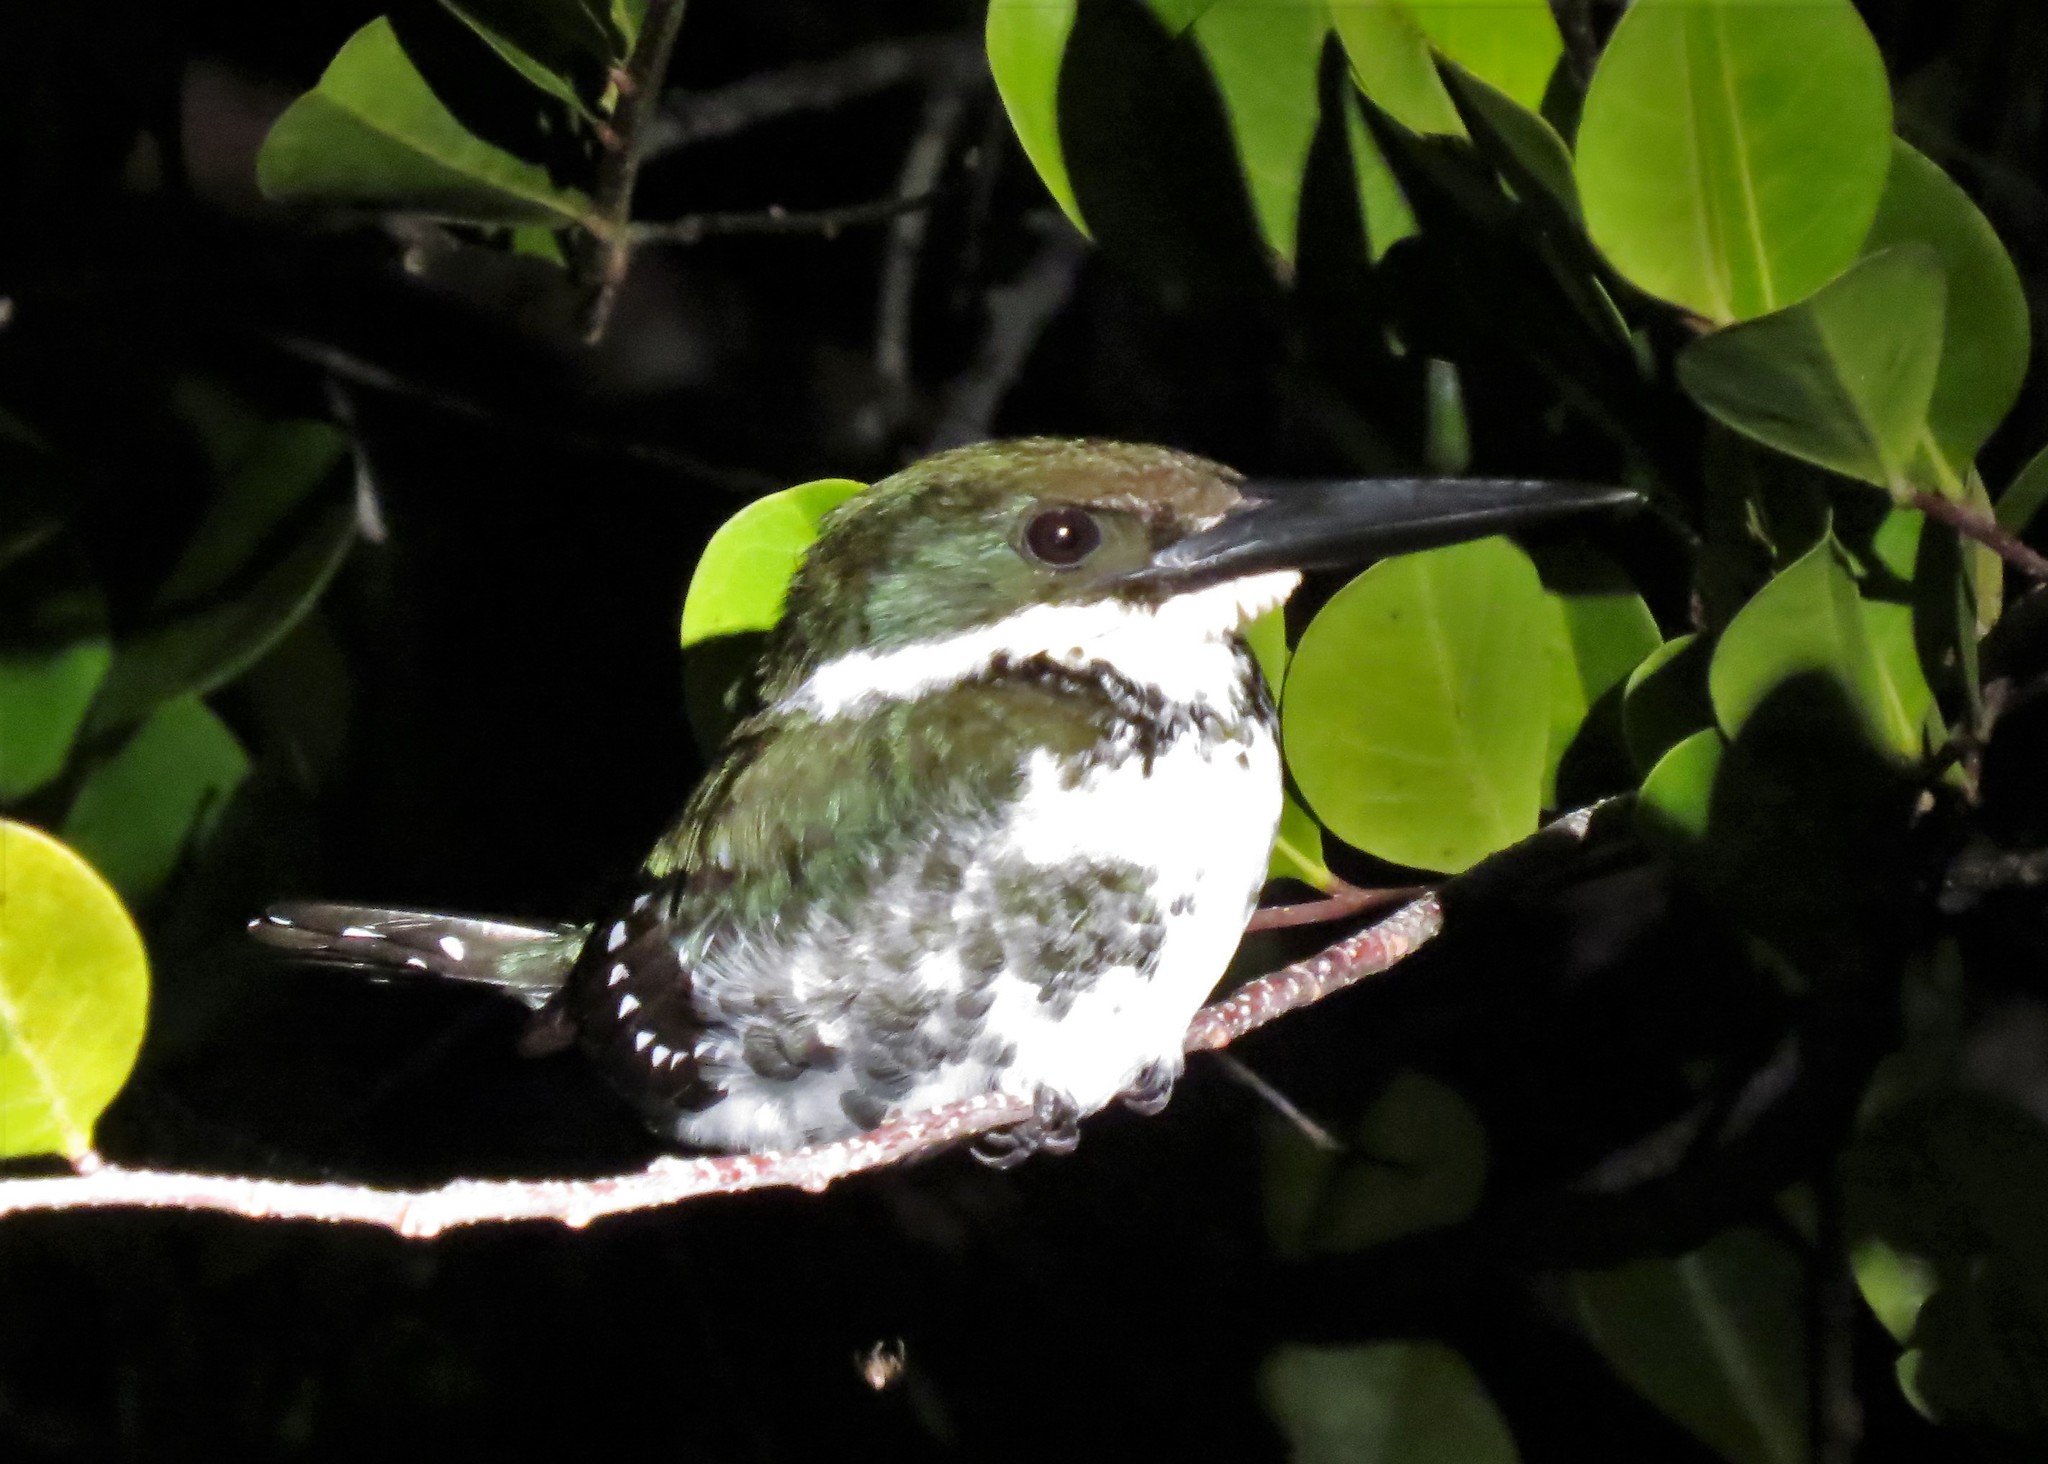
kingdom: Animalia
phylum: Chordata
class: Aves
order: Coraciiformes
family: Alcedinidae
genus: Chloroceryle
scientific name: Chloroceryle americana
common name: Green kingfisher
